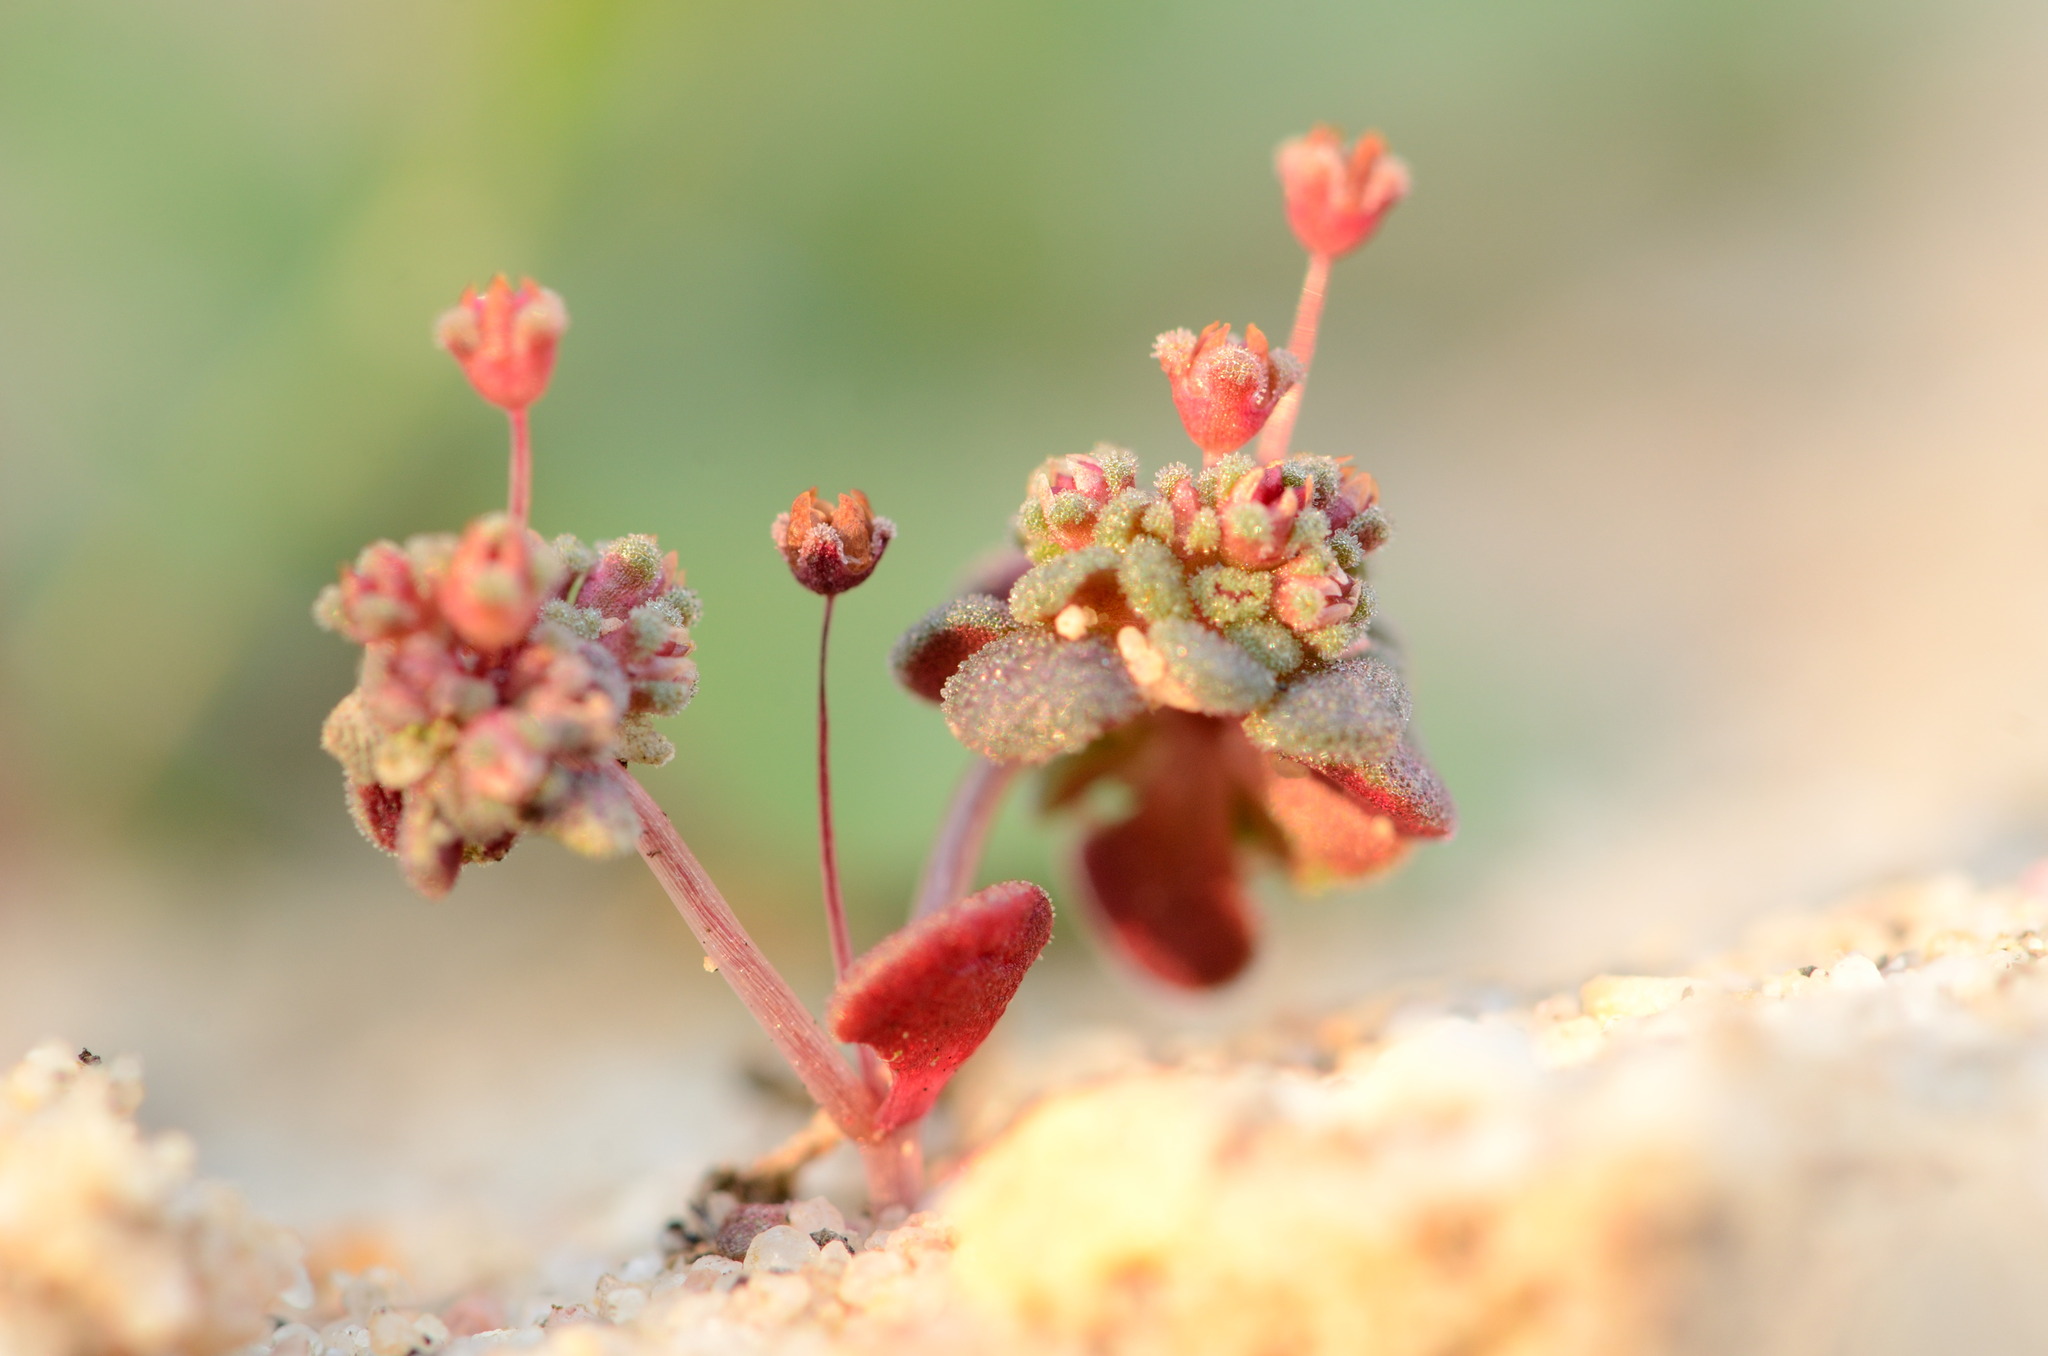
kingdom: Plantae
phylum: Tracheophyta
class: Magnoliopsida
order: Saxifragales
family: Crassulaceae
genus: Crassula
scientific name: Crassula umbellata
